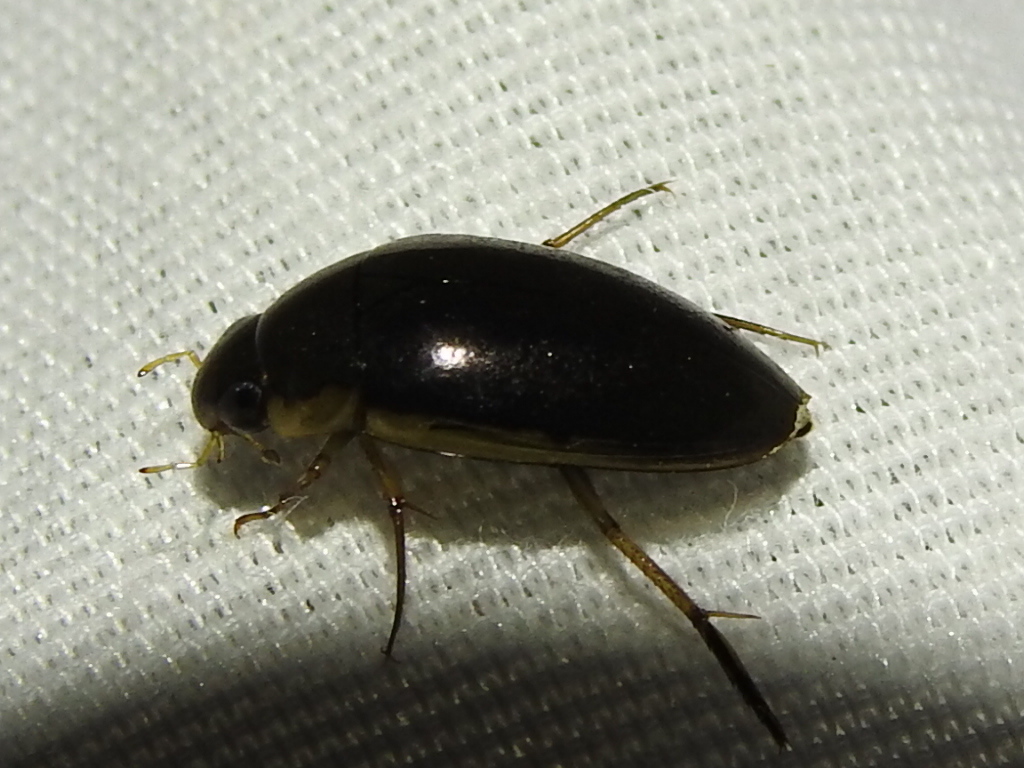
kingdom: Animalia
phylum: Arthropoda
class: Insecta
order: Coleoptera
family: Hydrophilidae
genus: Tropisternus
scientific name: Tropisternus lateralis
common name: Lateral-banded water scavenger beetle
